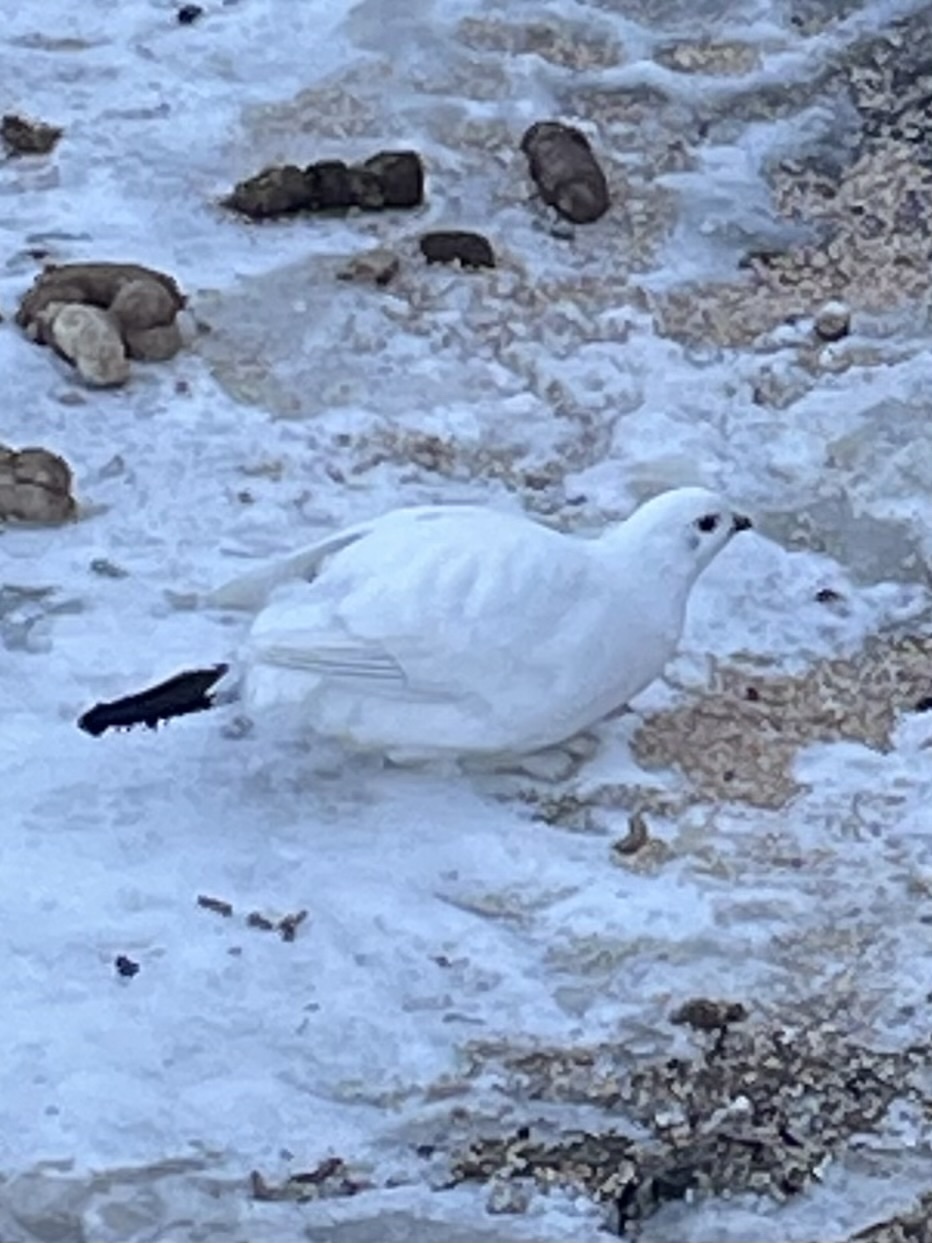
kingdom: Animalia
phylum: Chordata
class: Aves
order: Galliformes
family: Phasianidae
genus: Lagopus
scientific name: Lagopus lagopus
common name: Willow ptarmigan
